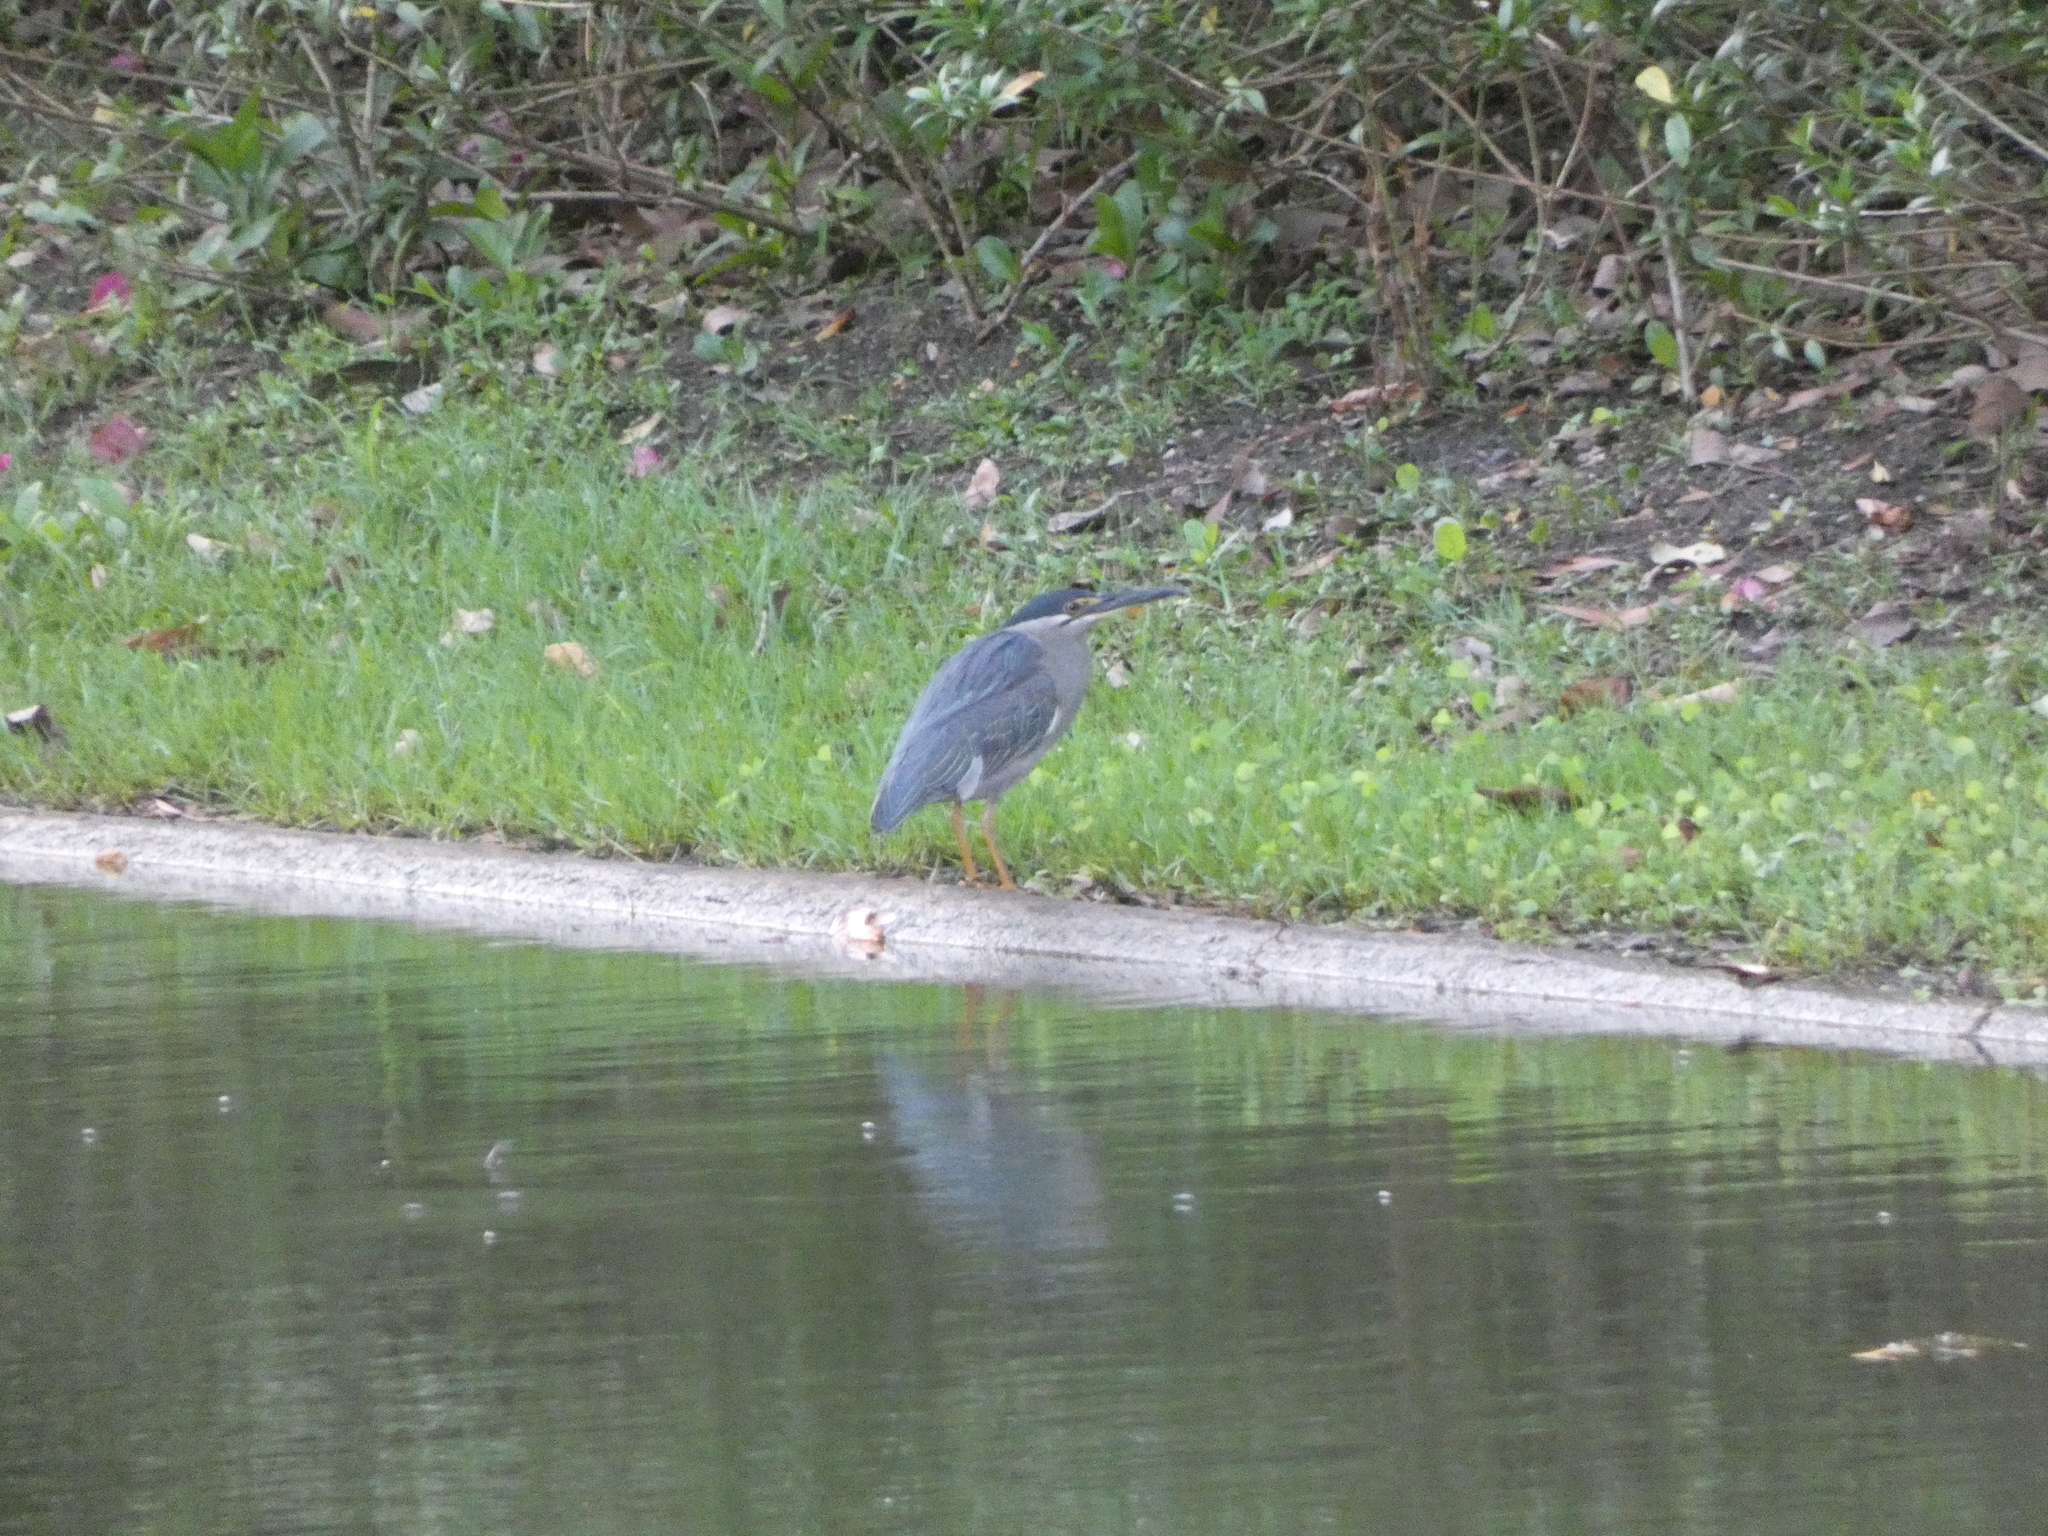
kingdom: Animalia
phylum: Chordata
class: Aves
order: Pelecaniformes
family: Ardeidae
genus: Butorides
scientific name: Butorides striata
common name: Striated heron
